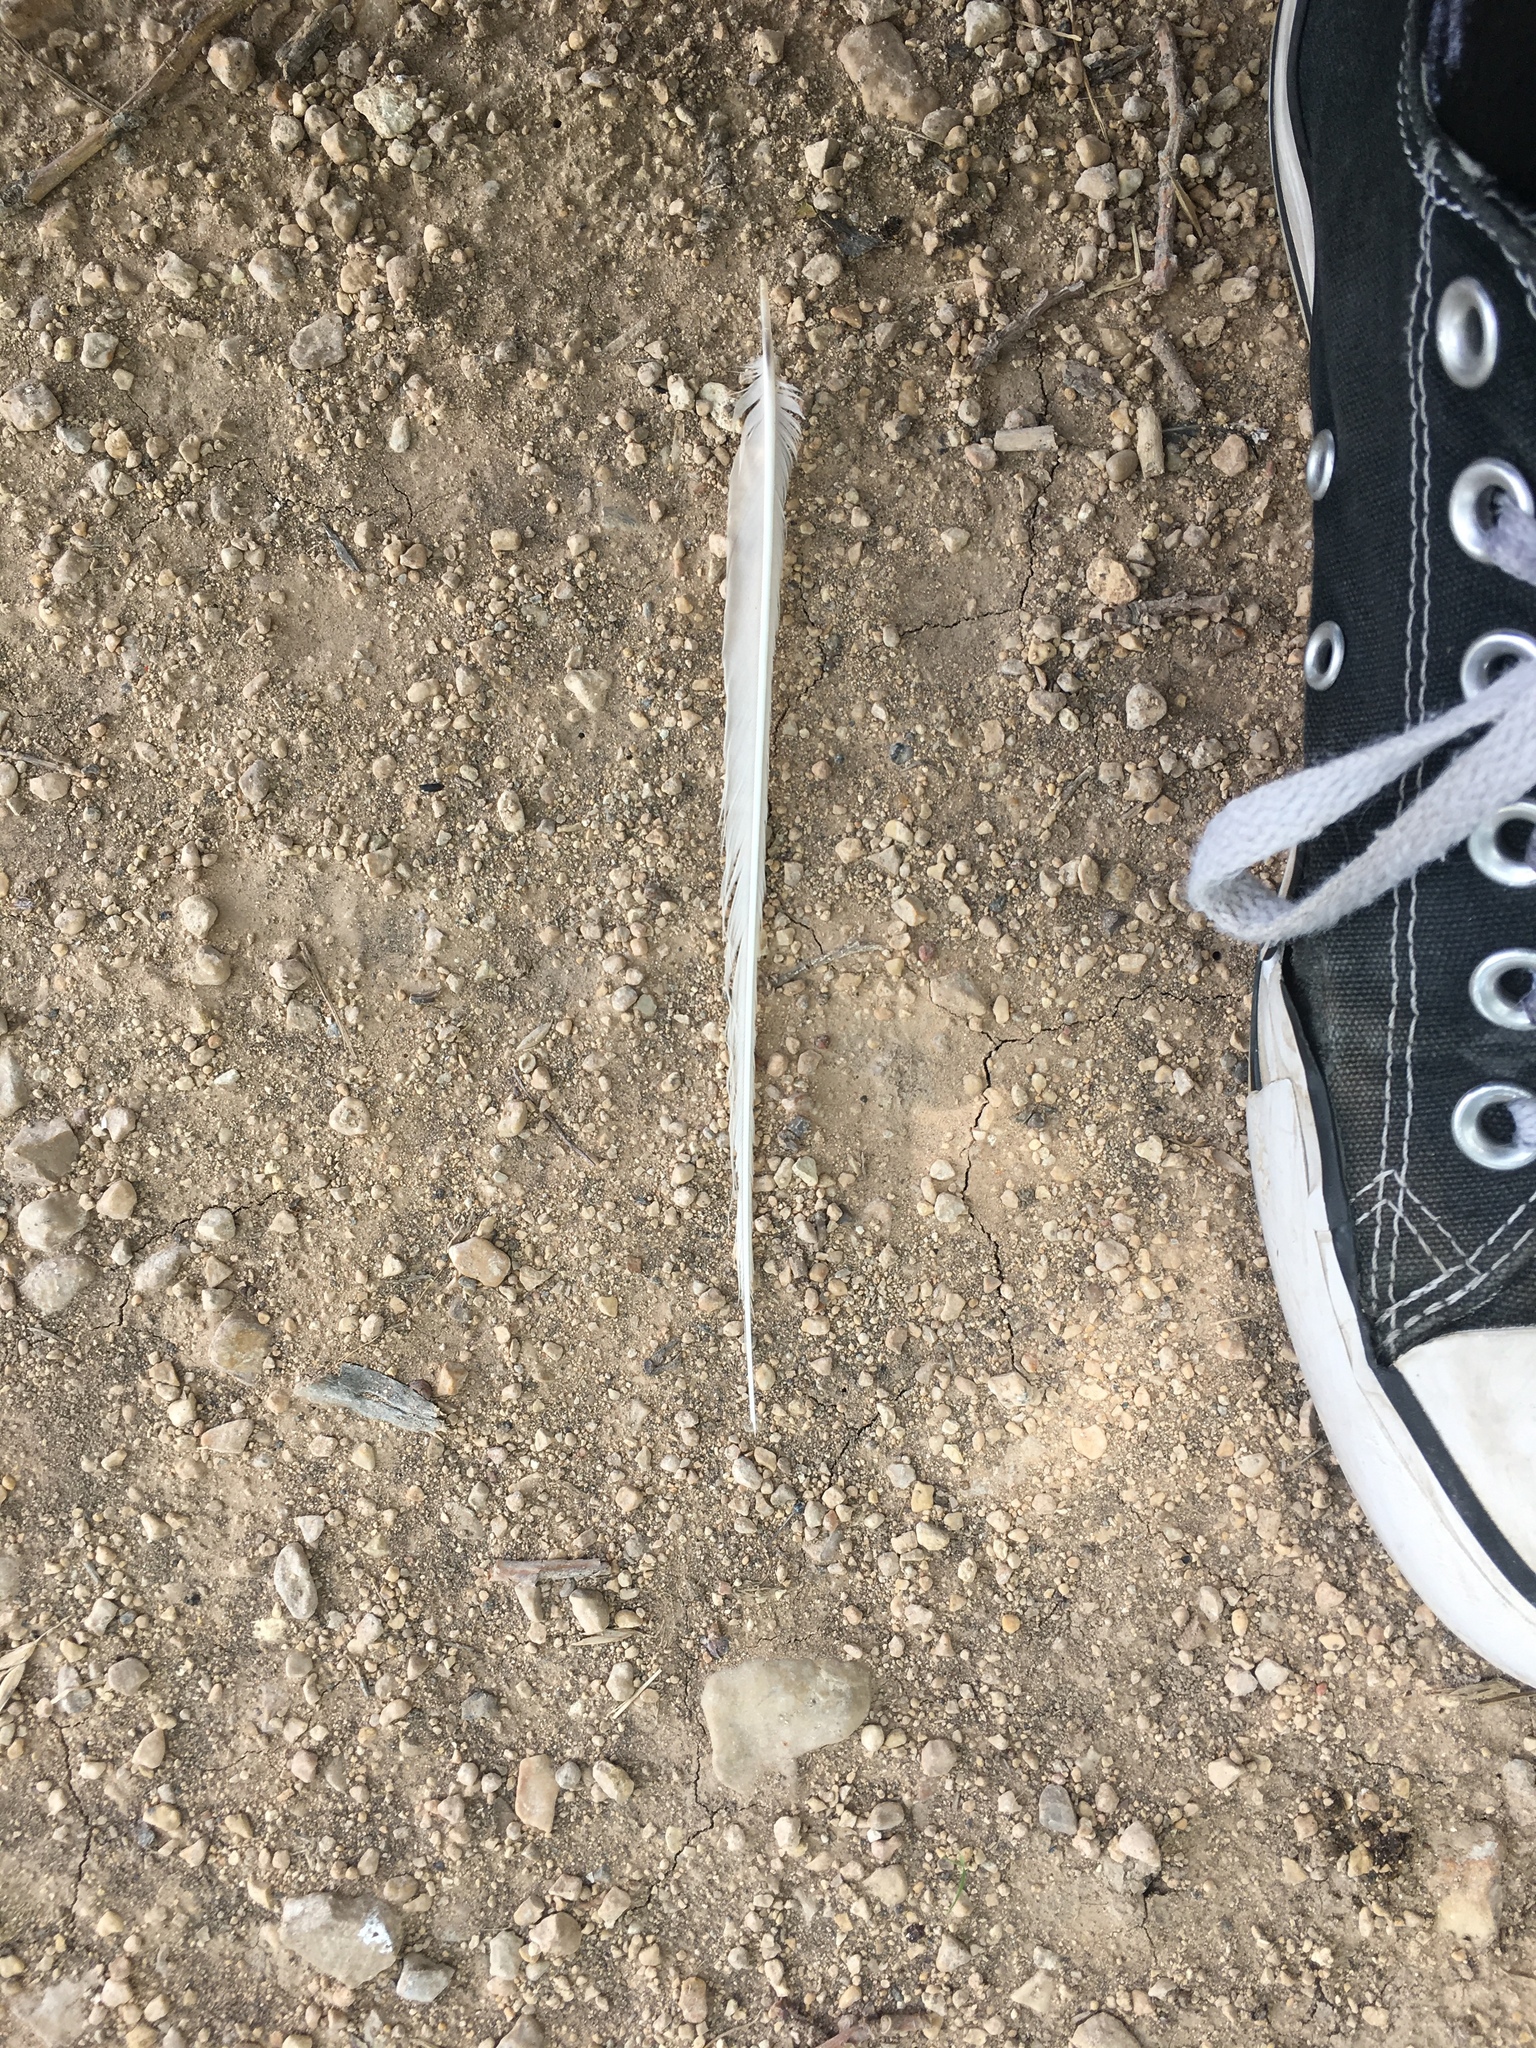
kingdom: Animalia
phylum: Chordata
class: Aves
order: Passeriformes
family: Tyrannidae
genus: Tyrannus
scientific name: Tyrannus forficatus
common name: Scissor-tailed flycatcher
